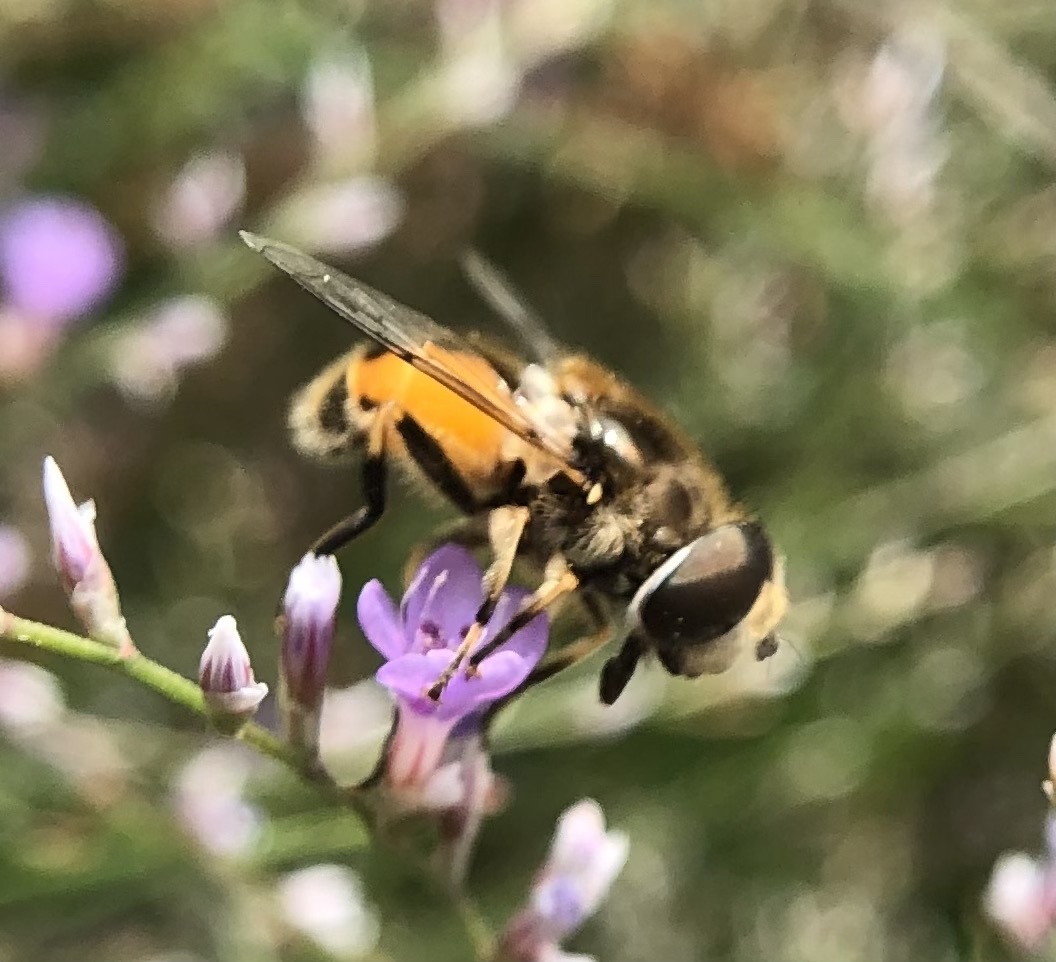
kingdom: Animalia
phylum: Arthropoda
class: Insecta
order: Diptera
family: Syrphidae
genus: Eristalis
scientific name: Eristalis arbustorum
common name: Hover fly
